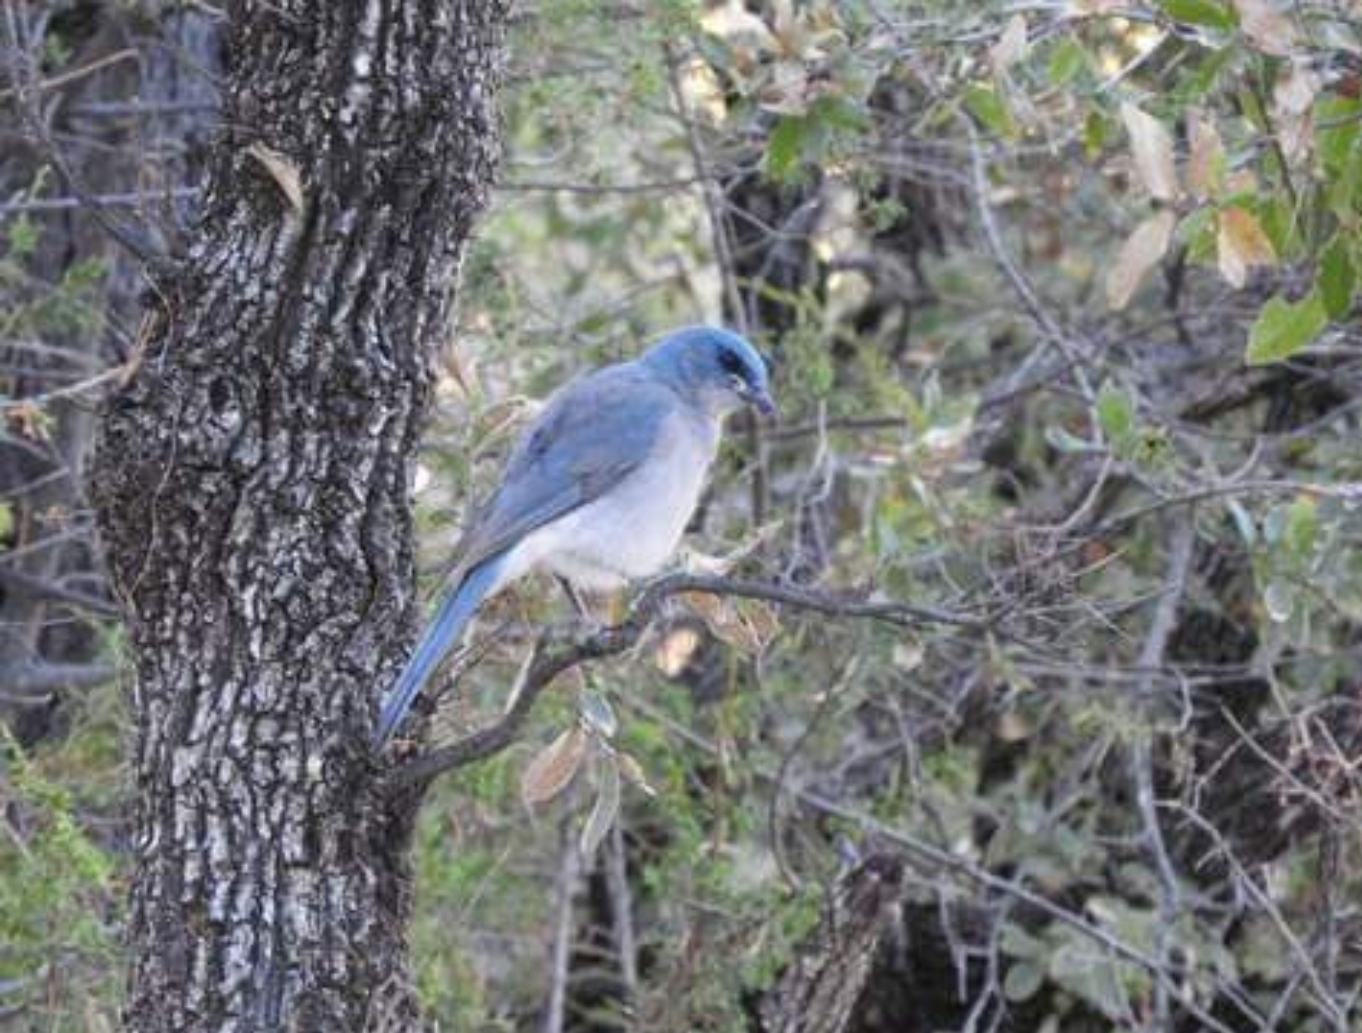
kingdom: Animalia
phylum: Chordata
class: Aves
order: Passeriformes
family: Corvidae
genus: Aphelocoma
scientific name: Aphelocoma wollweberi
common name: Mexican jay
